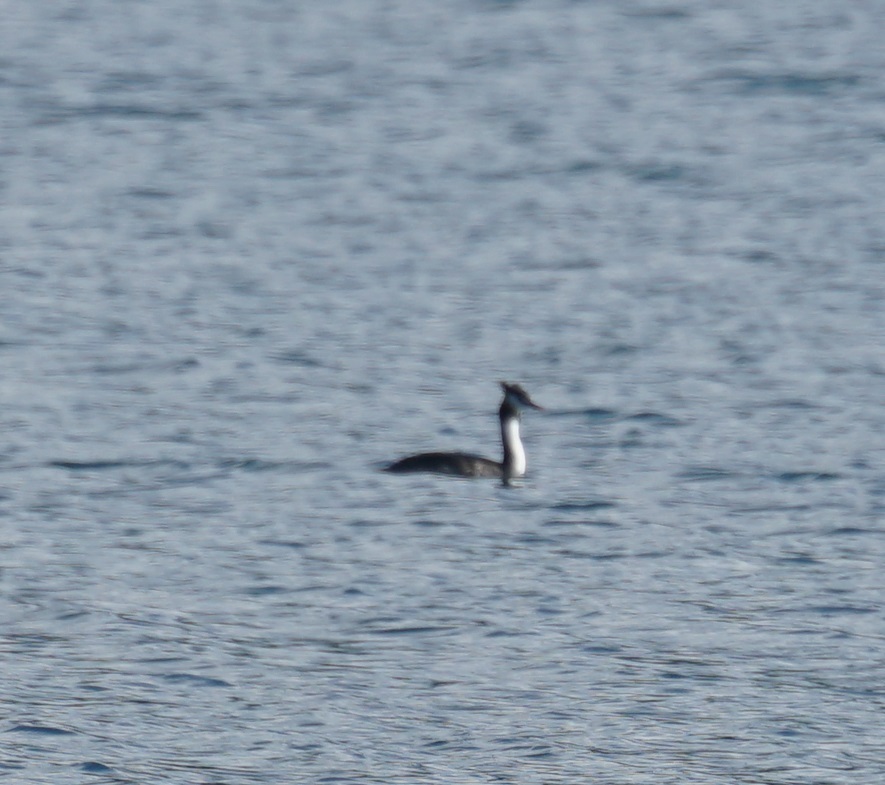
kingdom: Animalia
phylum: Chordata
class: Aves
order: Podicipediformes
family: Podicipedidae
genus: Podiceps
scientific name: Podiceps cristatus
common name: Great crested grebe
